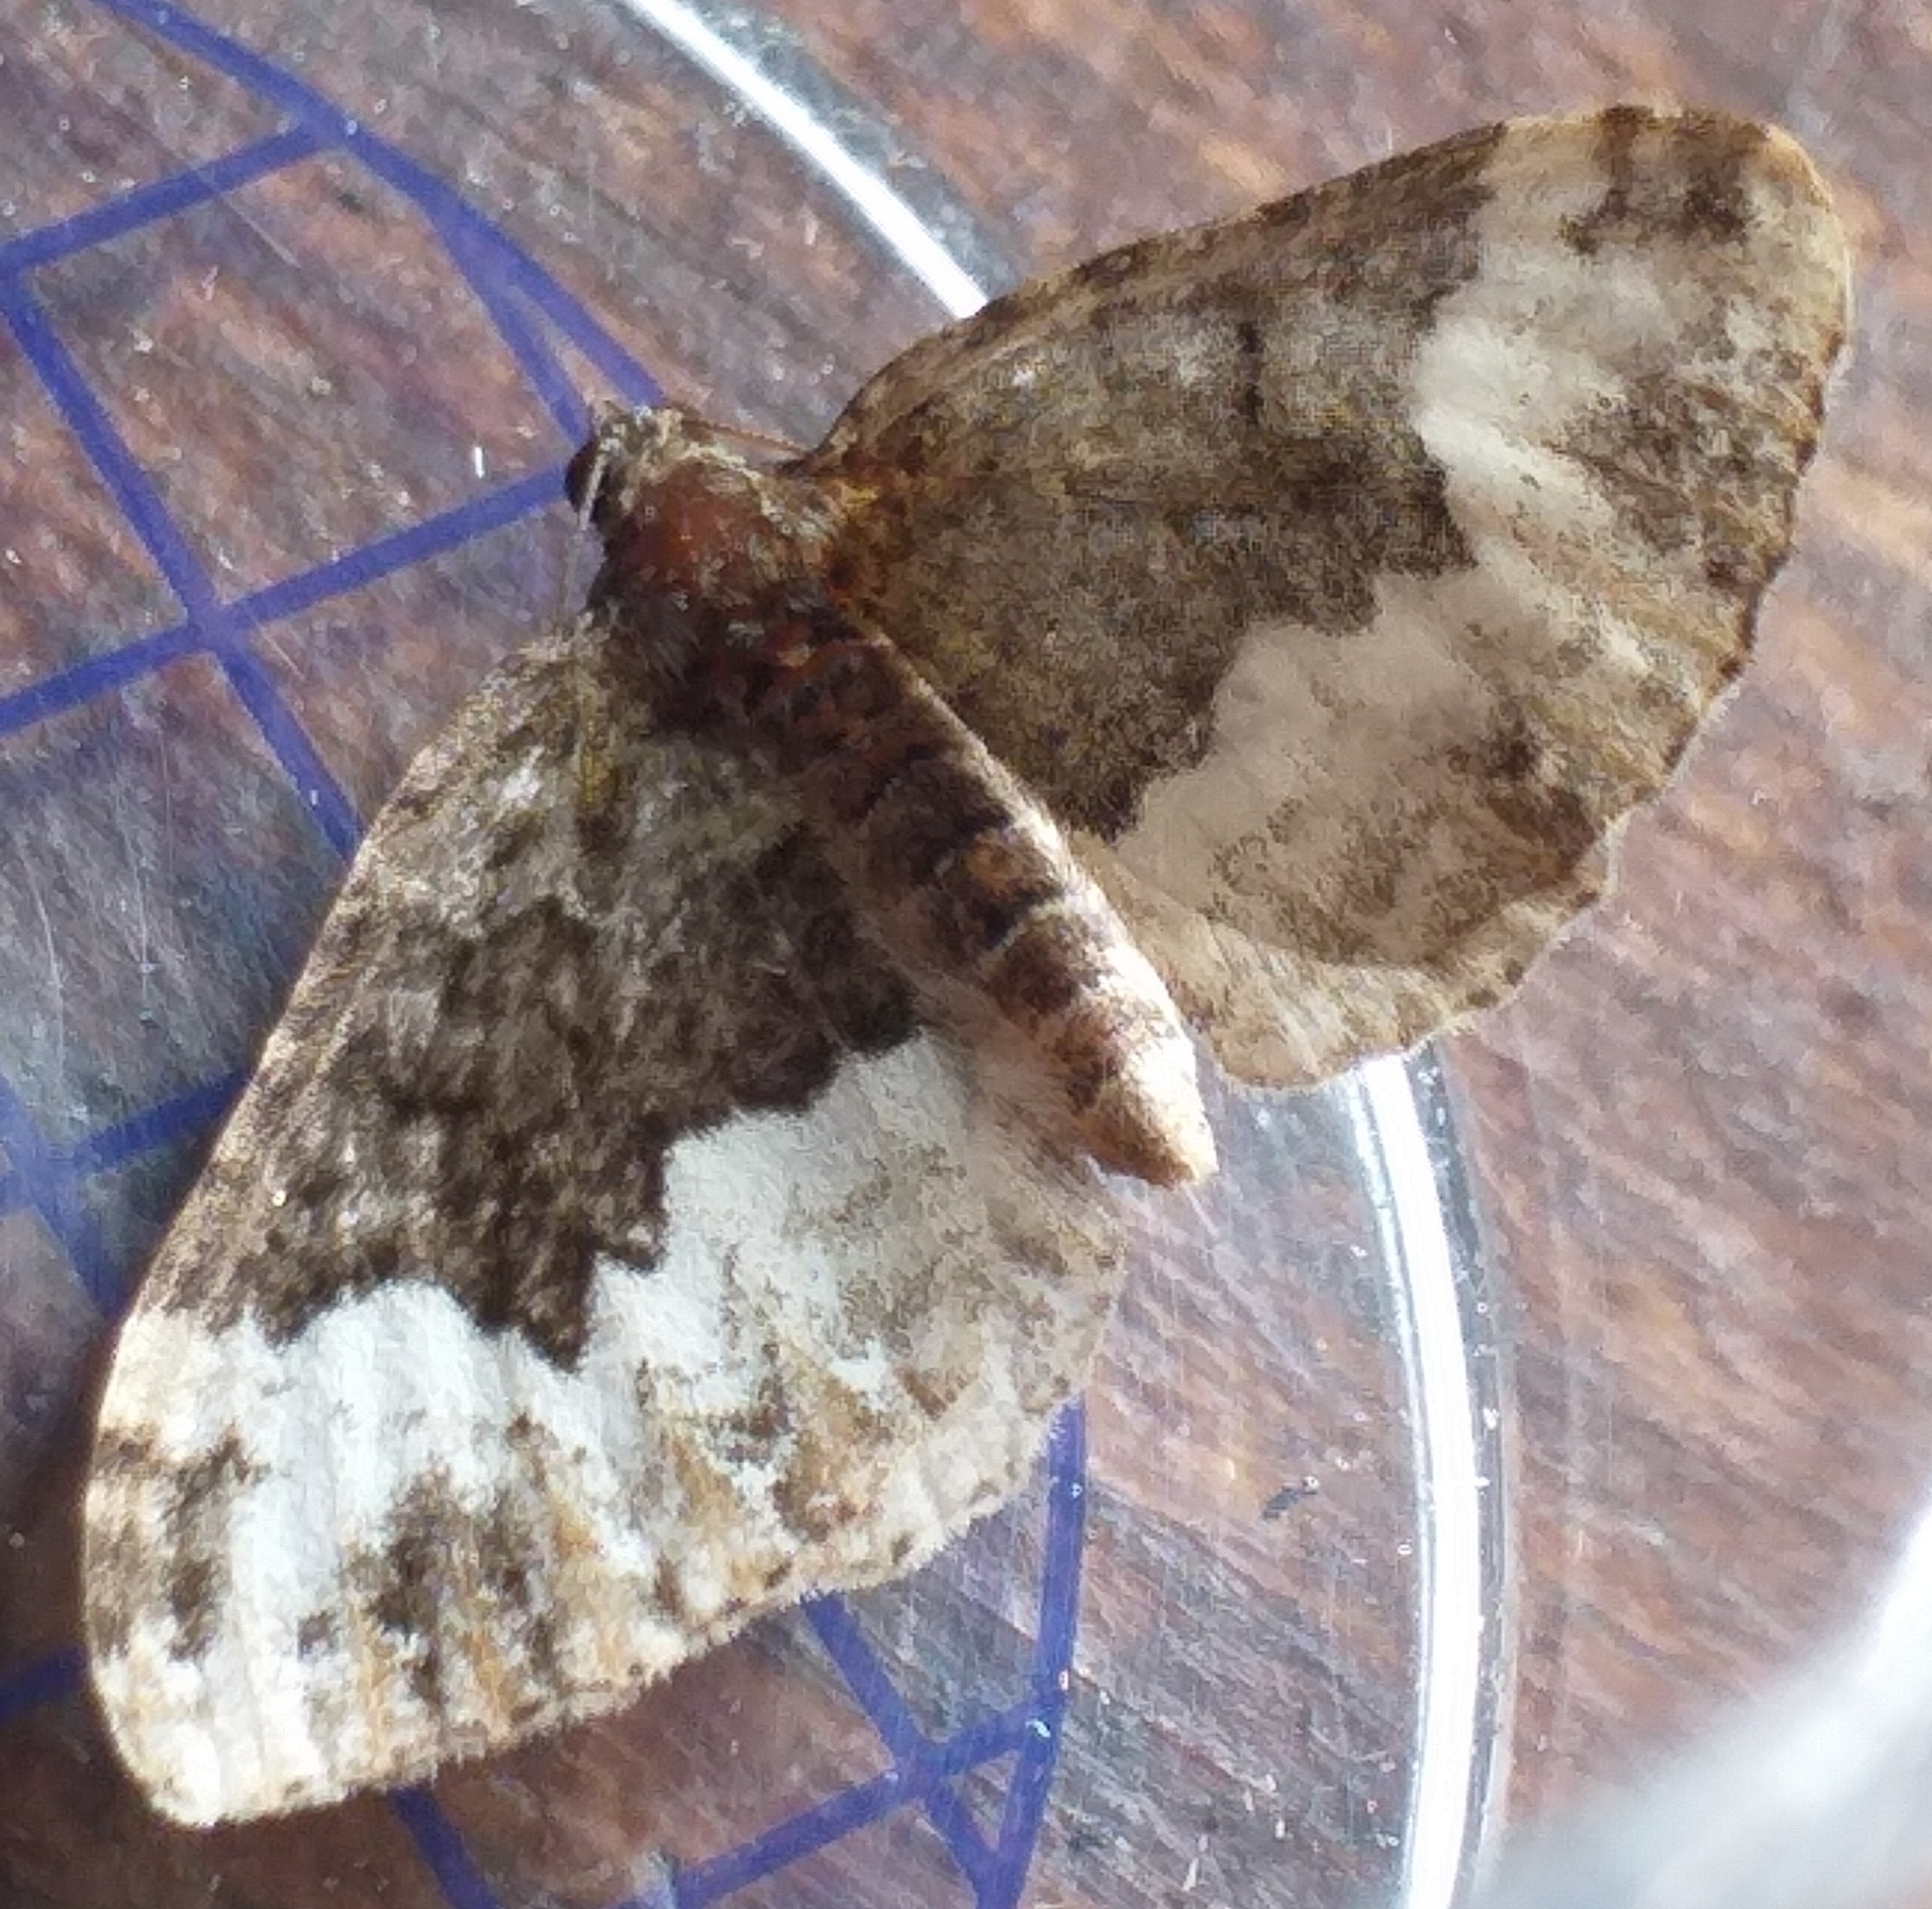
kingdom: Animalia
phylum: Arthropoda
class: Insecta
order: Lepidoptera
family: Geometridae
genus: Euphyia
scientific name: Euphyia biangulata
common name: Cloaked carpet
